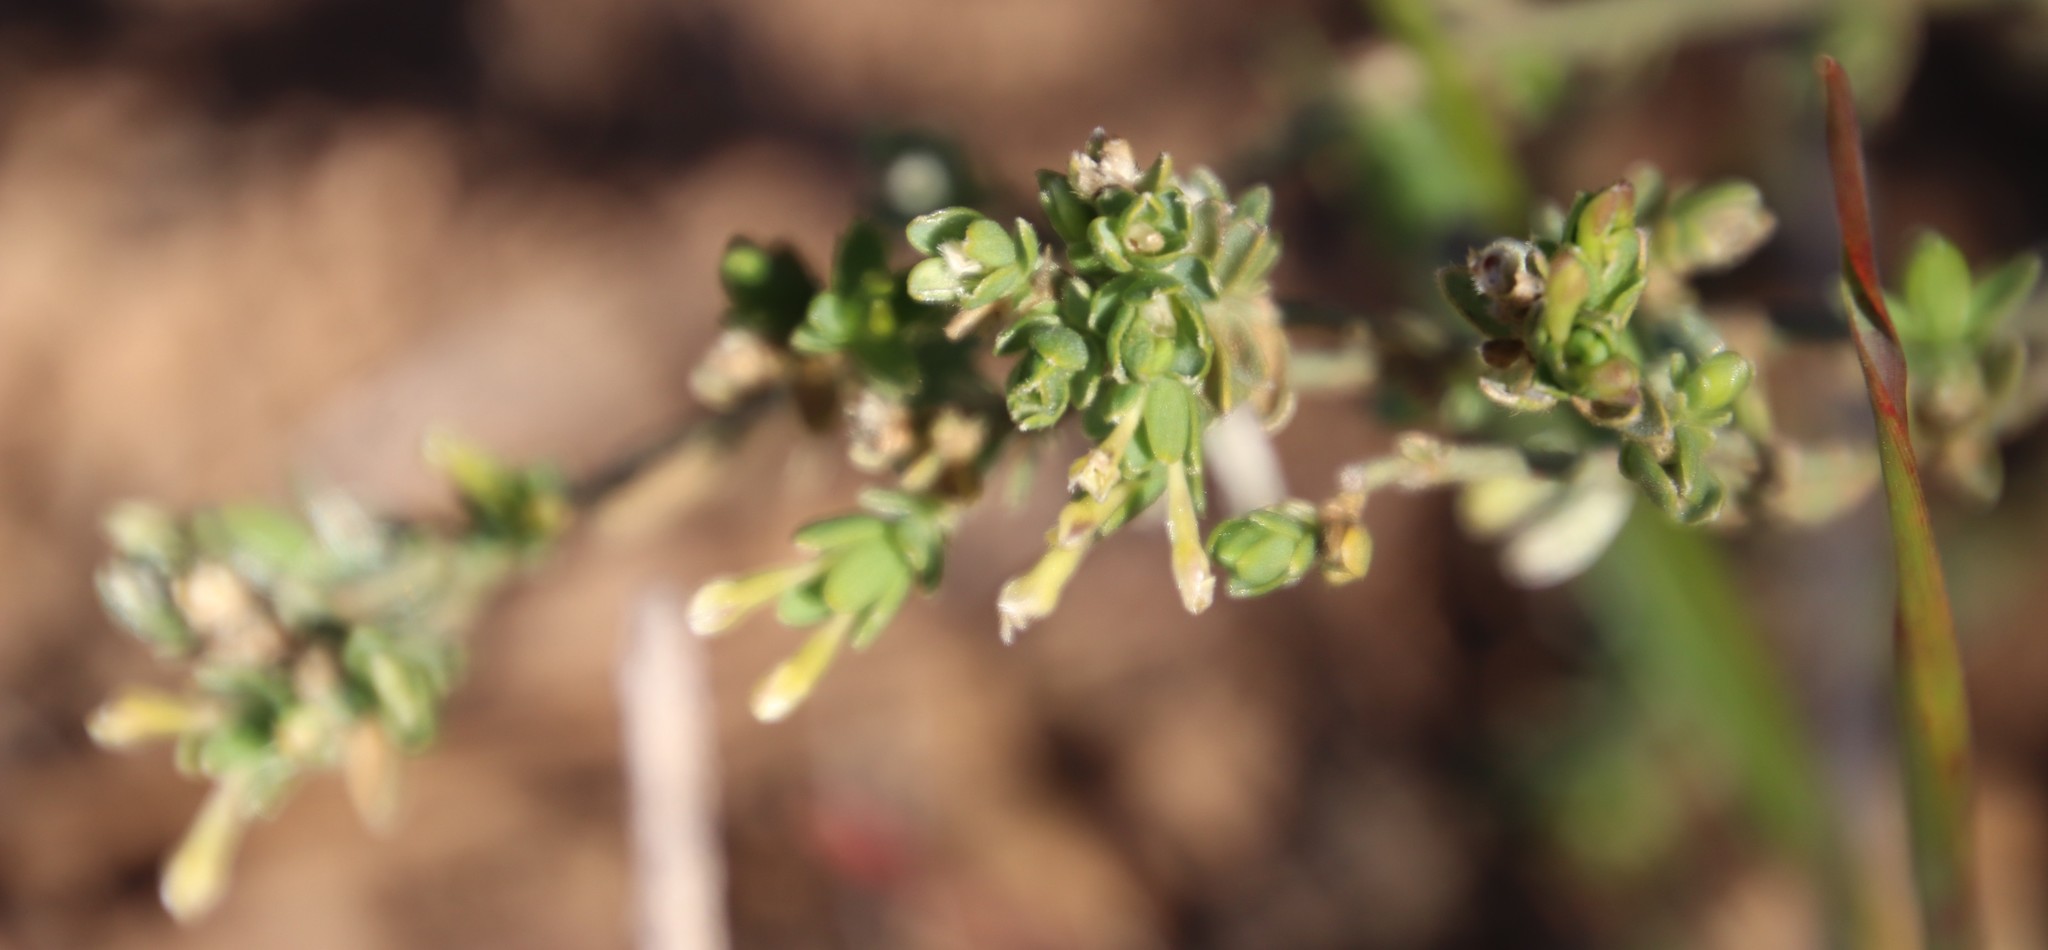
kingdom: Plantae
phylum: Tracheophyta
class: Magnoliopsida
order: Malvales
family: Thymelaeaceae
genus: Gnidia
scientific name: Gnidia inconspicua
